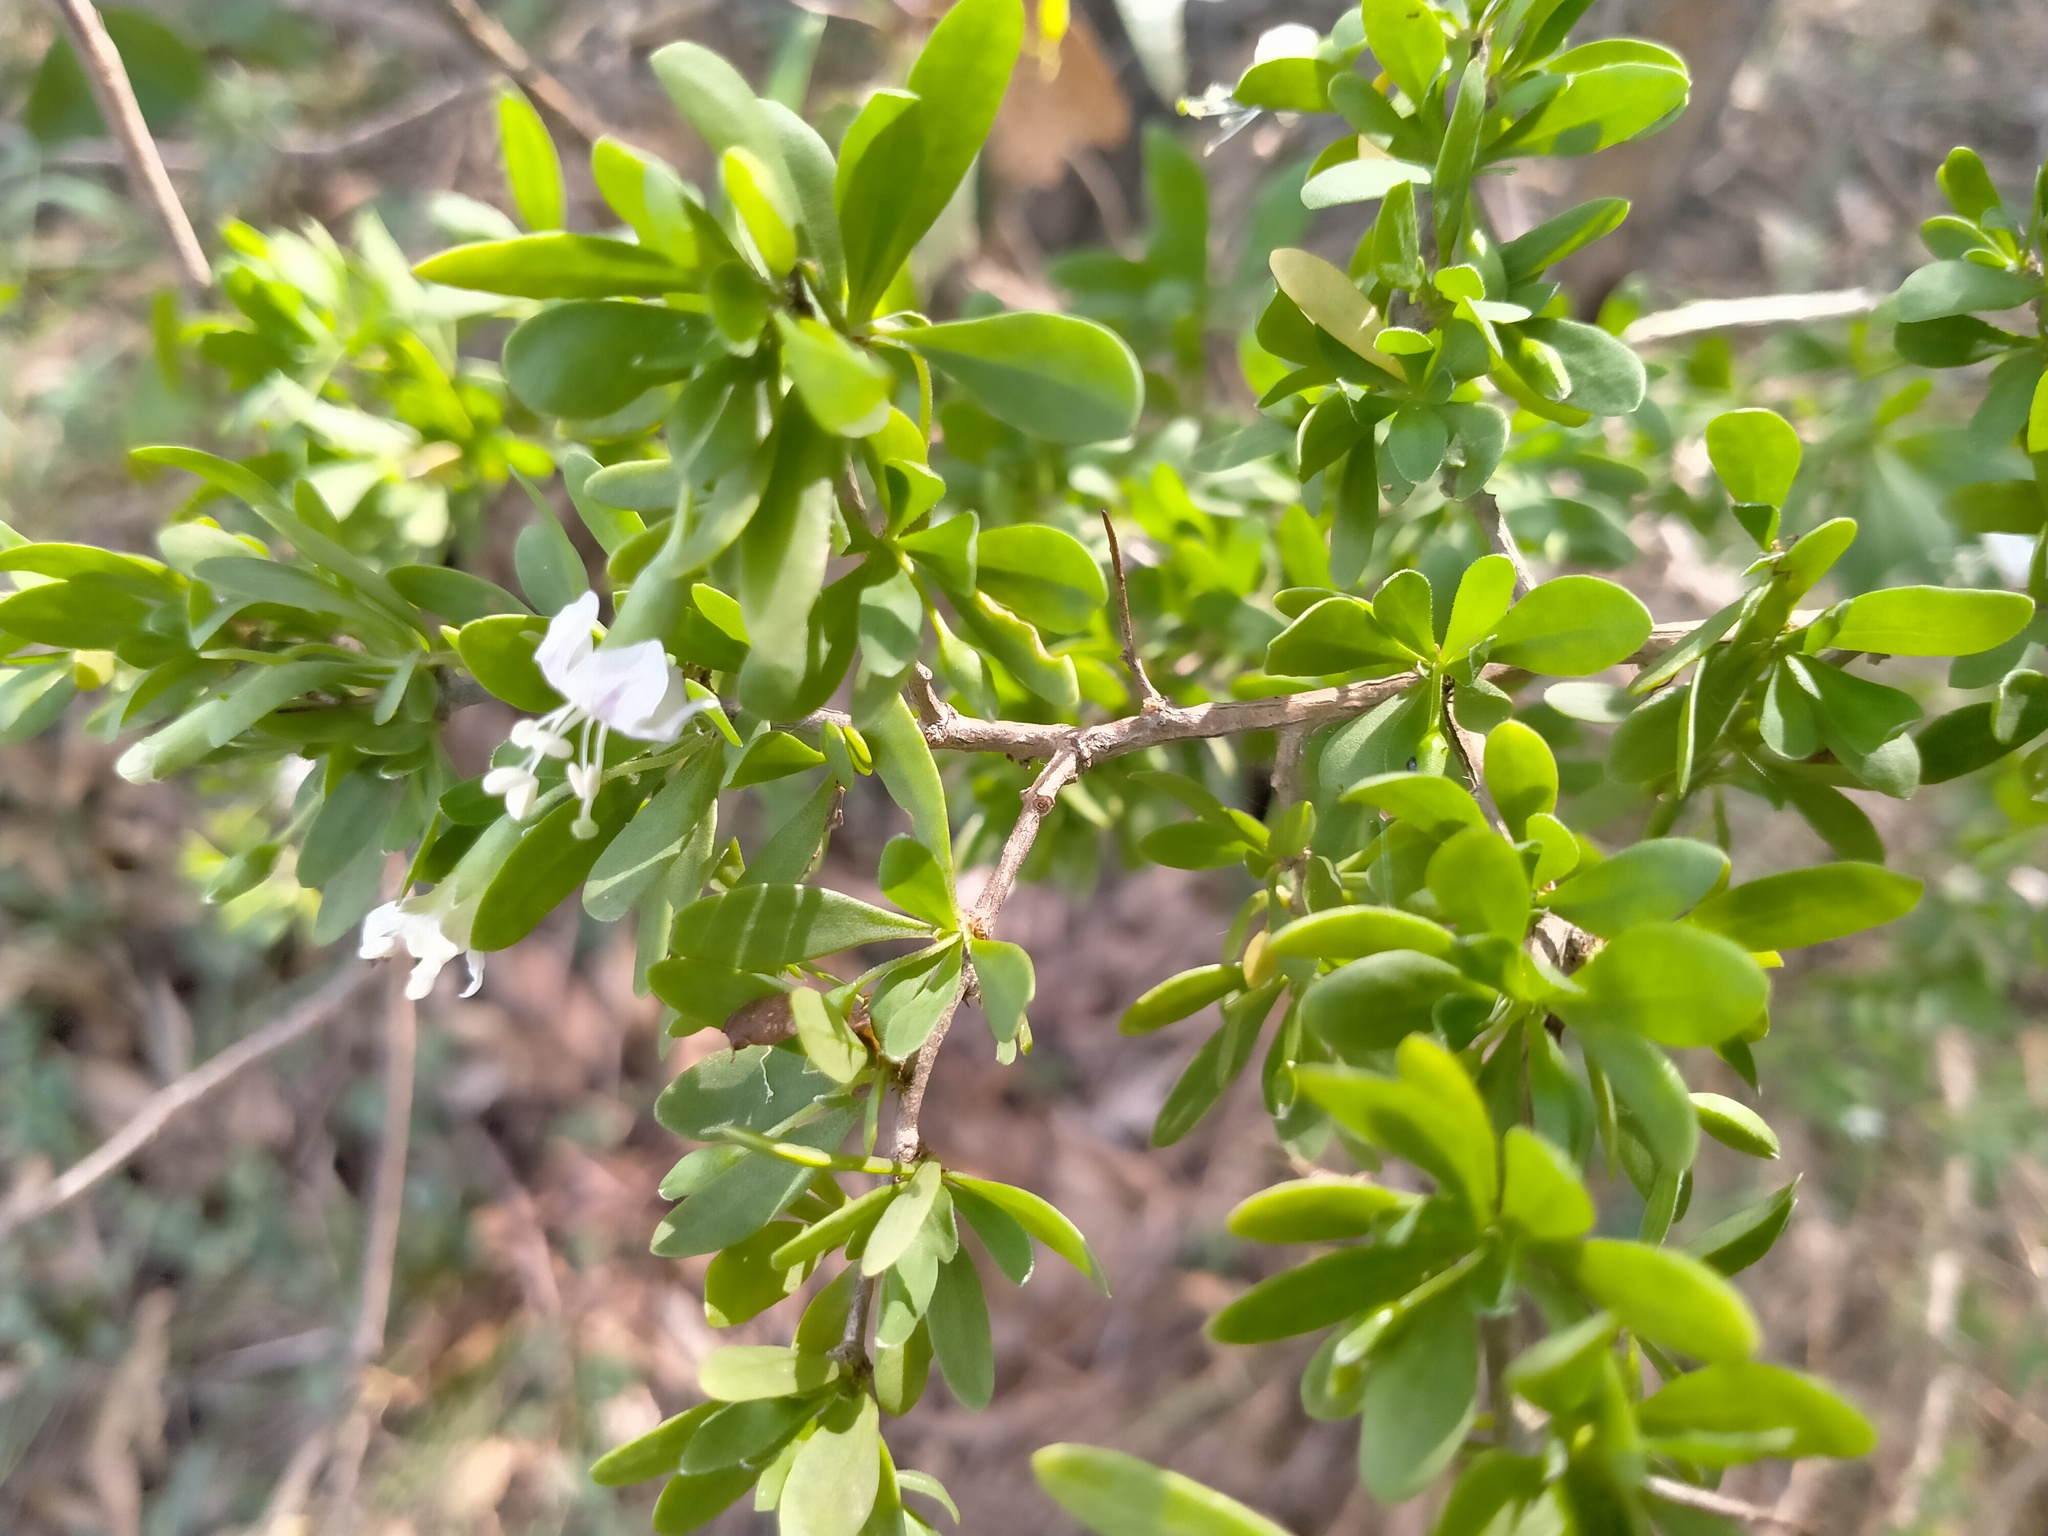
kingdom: Plantae
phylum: Tracheophyta
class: Magnoliopsida
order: Solanales
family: Solanaceae
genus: Lycium
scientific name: Lycium ferocissimum
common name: African boxthorn
